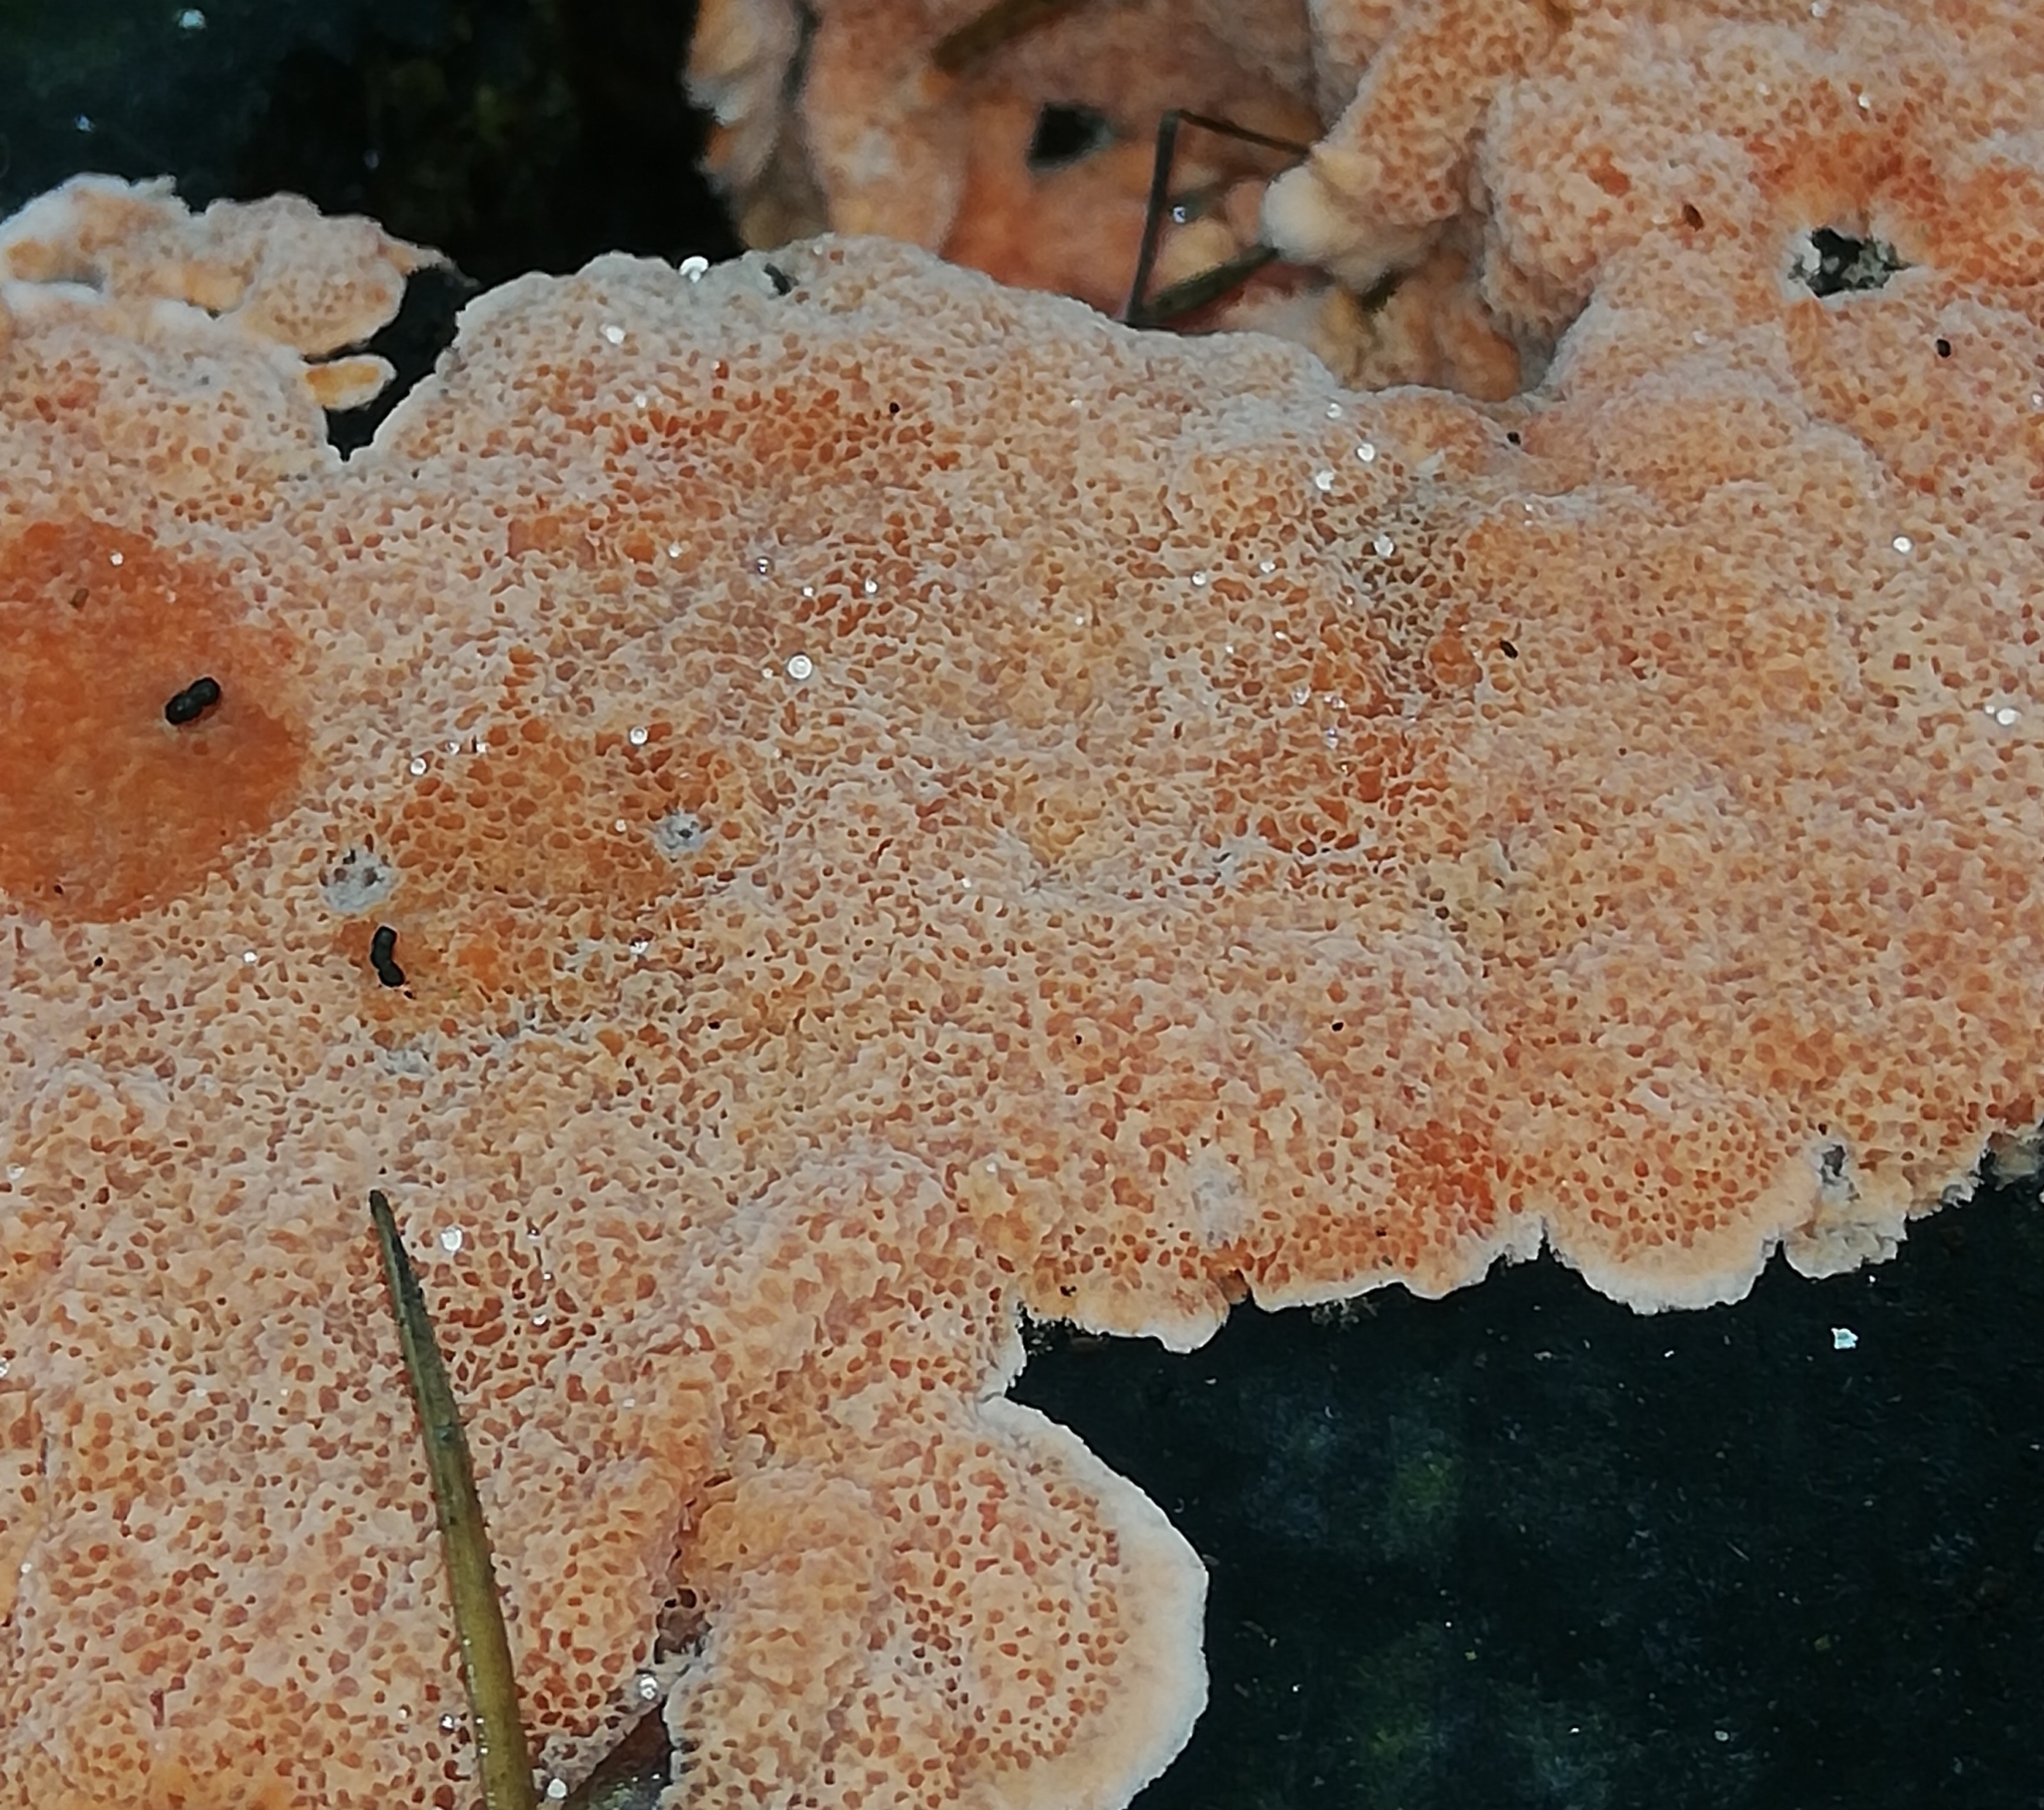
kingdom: Fungi
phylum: Basidiomycota
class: Agaricomycetes
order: Polyporales
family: Polyporaceae
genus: Rhodonia
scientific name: Rhodonia placenta
